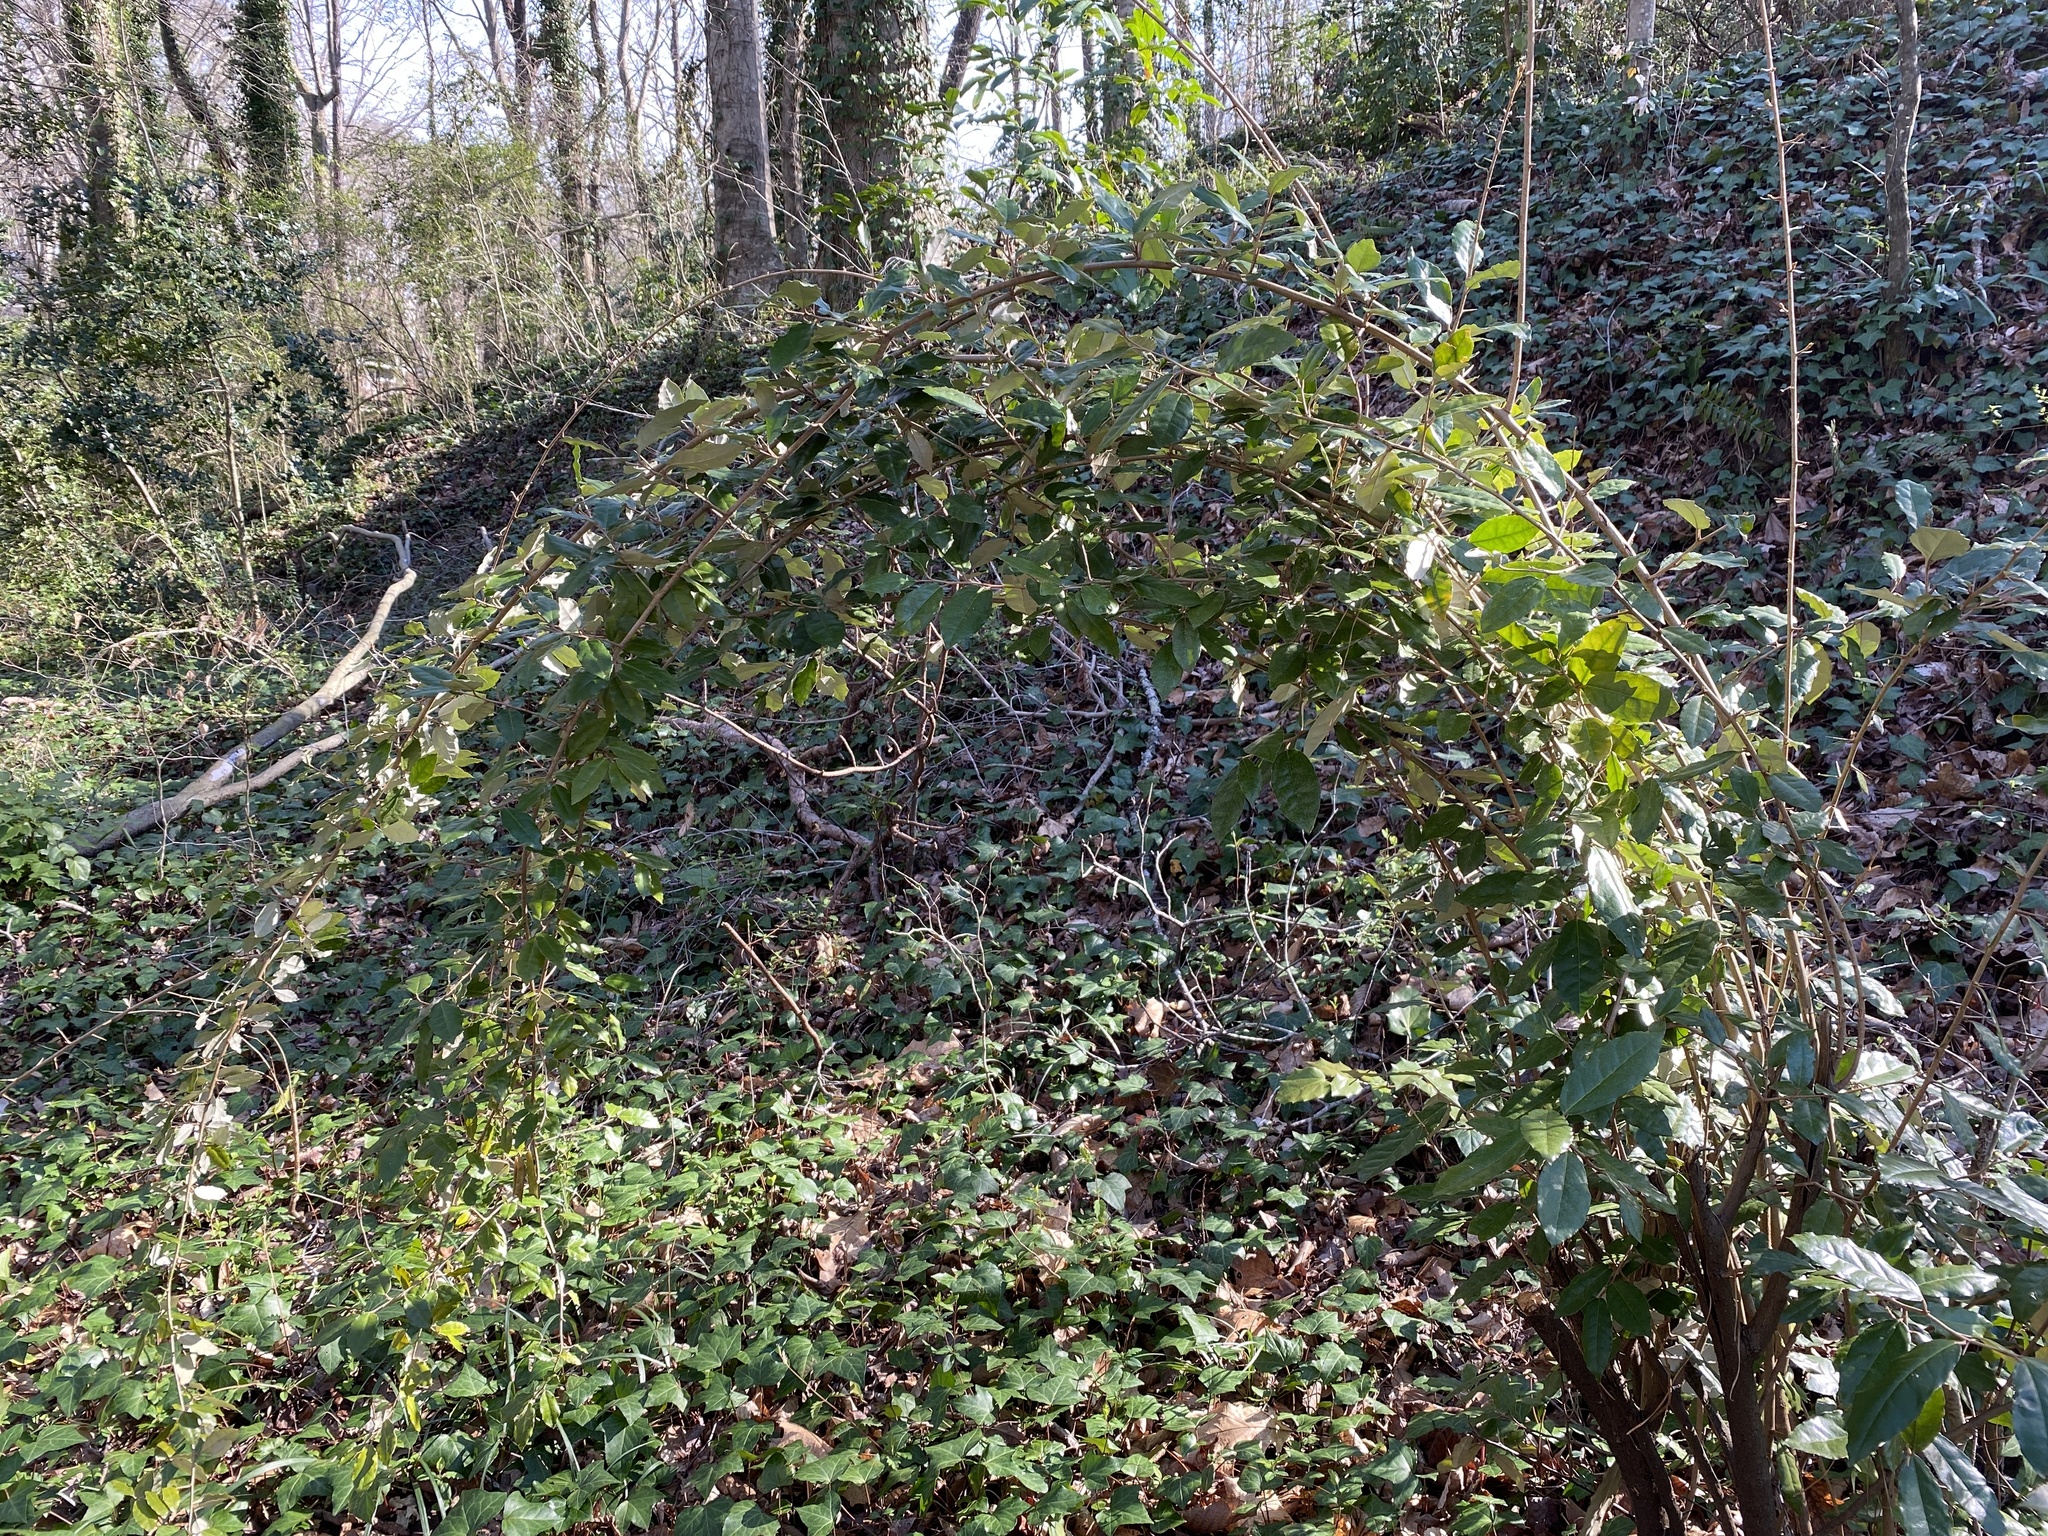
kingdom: Plantae
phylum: Tracheophyta
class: Magnoliopsida
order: Rosales
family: Elaeagnaceae
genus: Elaeagnus
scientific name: Elaeagnus pungens
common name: Spiny oleaster
